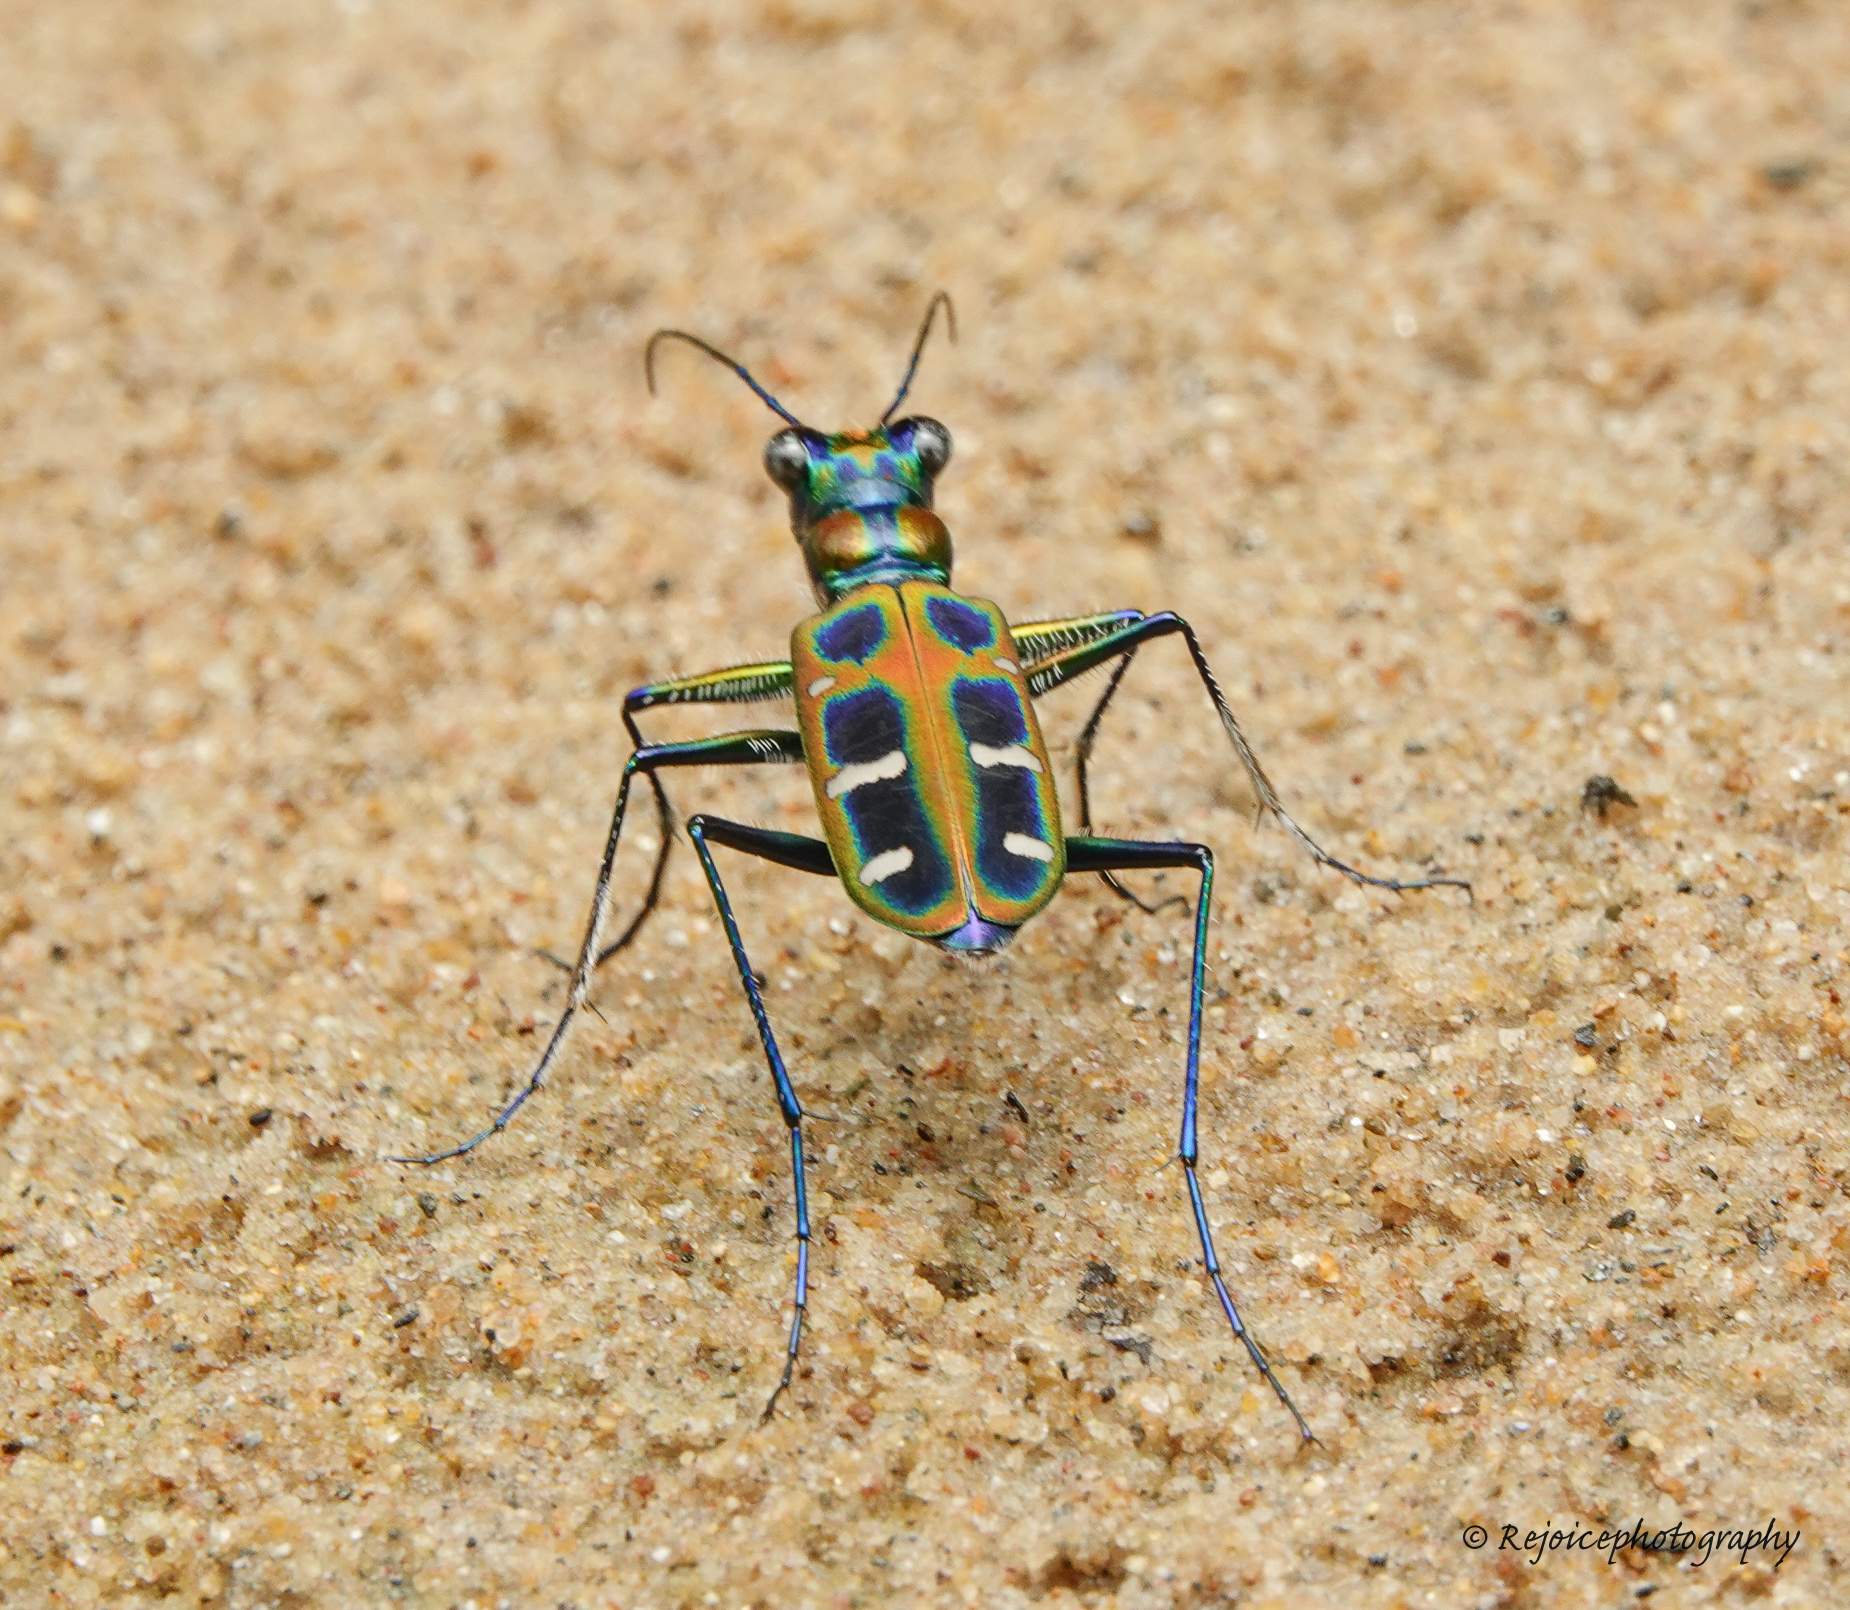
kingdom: Animalia
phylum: Arthropoda
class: Insecta
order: Coleoptera
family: Carabidae
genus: Cicindela
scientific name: Cicindela barmanica
